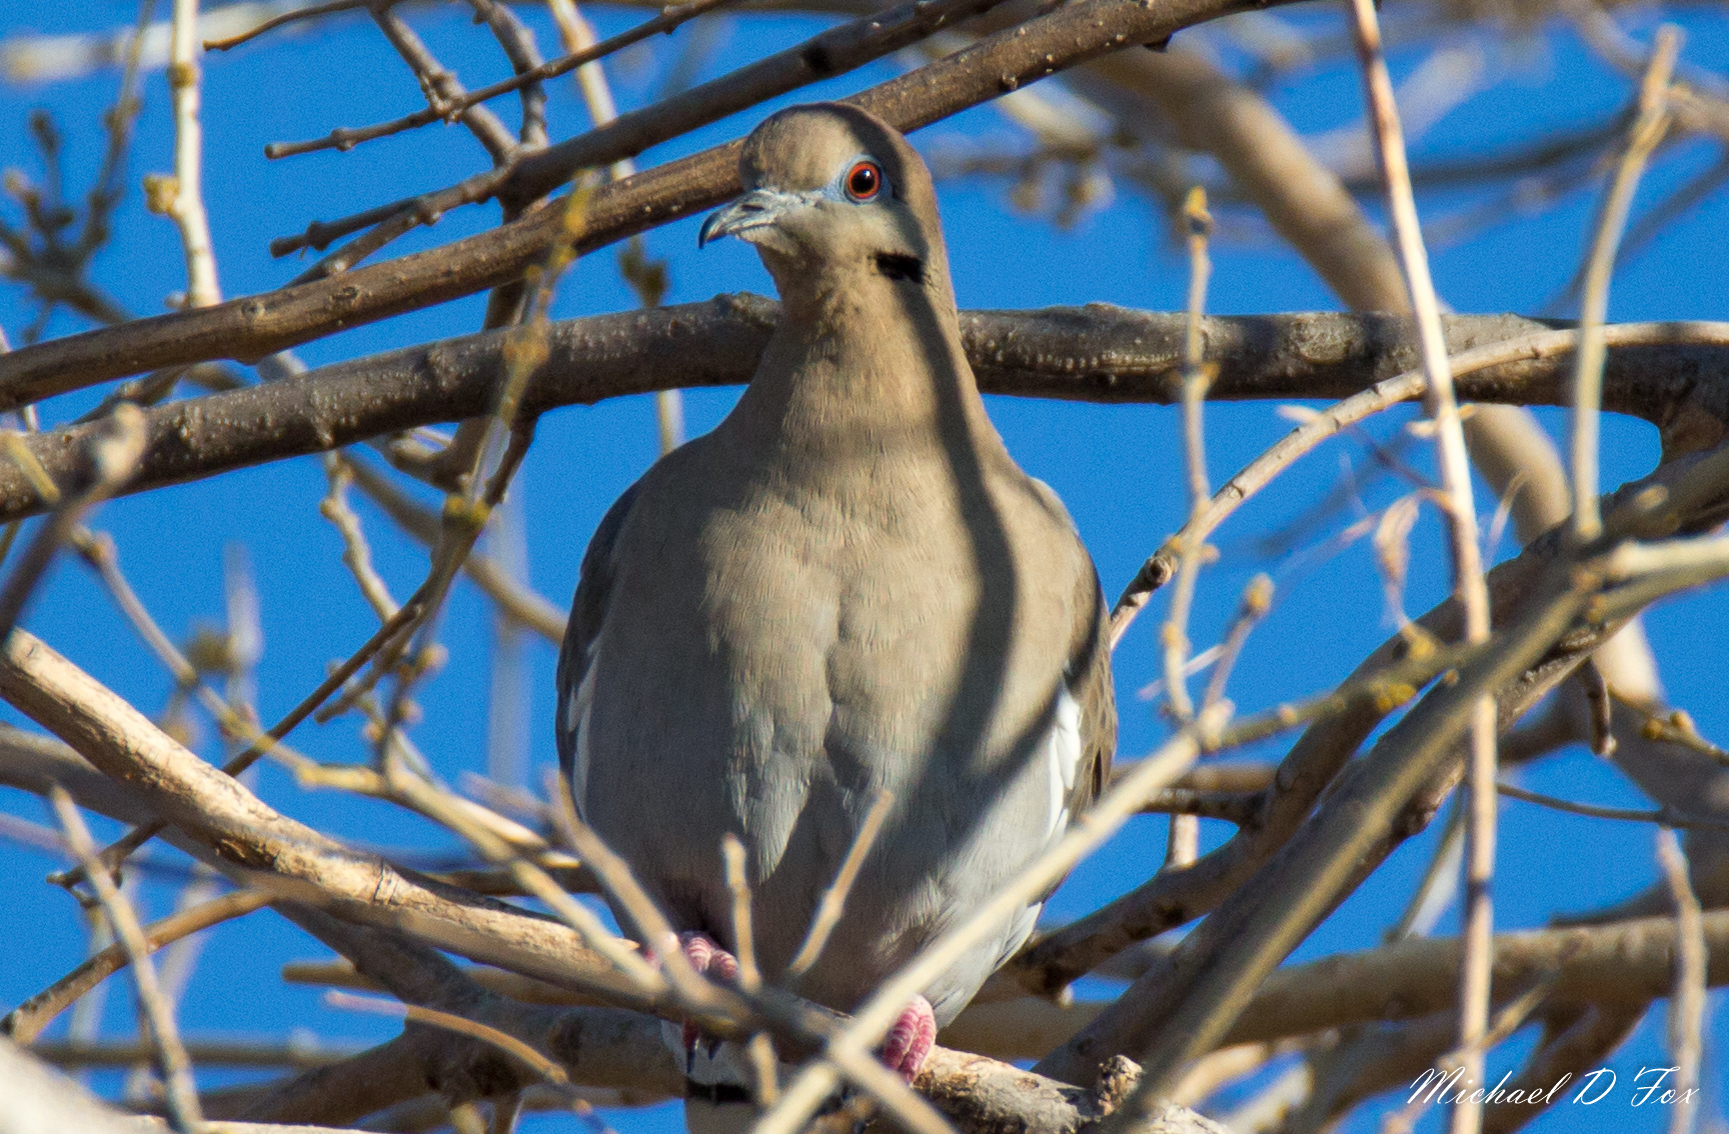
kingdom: Animalia
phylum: Chordata
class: Aves
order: Columbiformes
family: Columbidae
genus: Zenaida
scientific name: Zenaida asiatica
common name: White-winged dove
